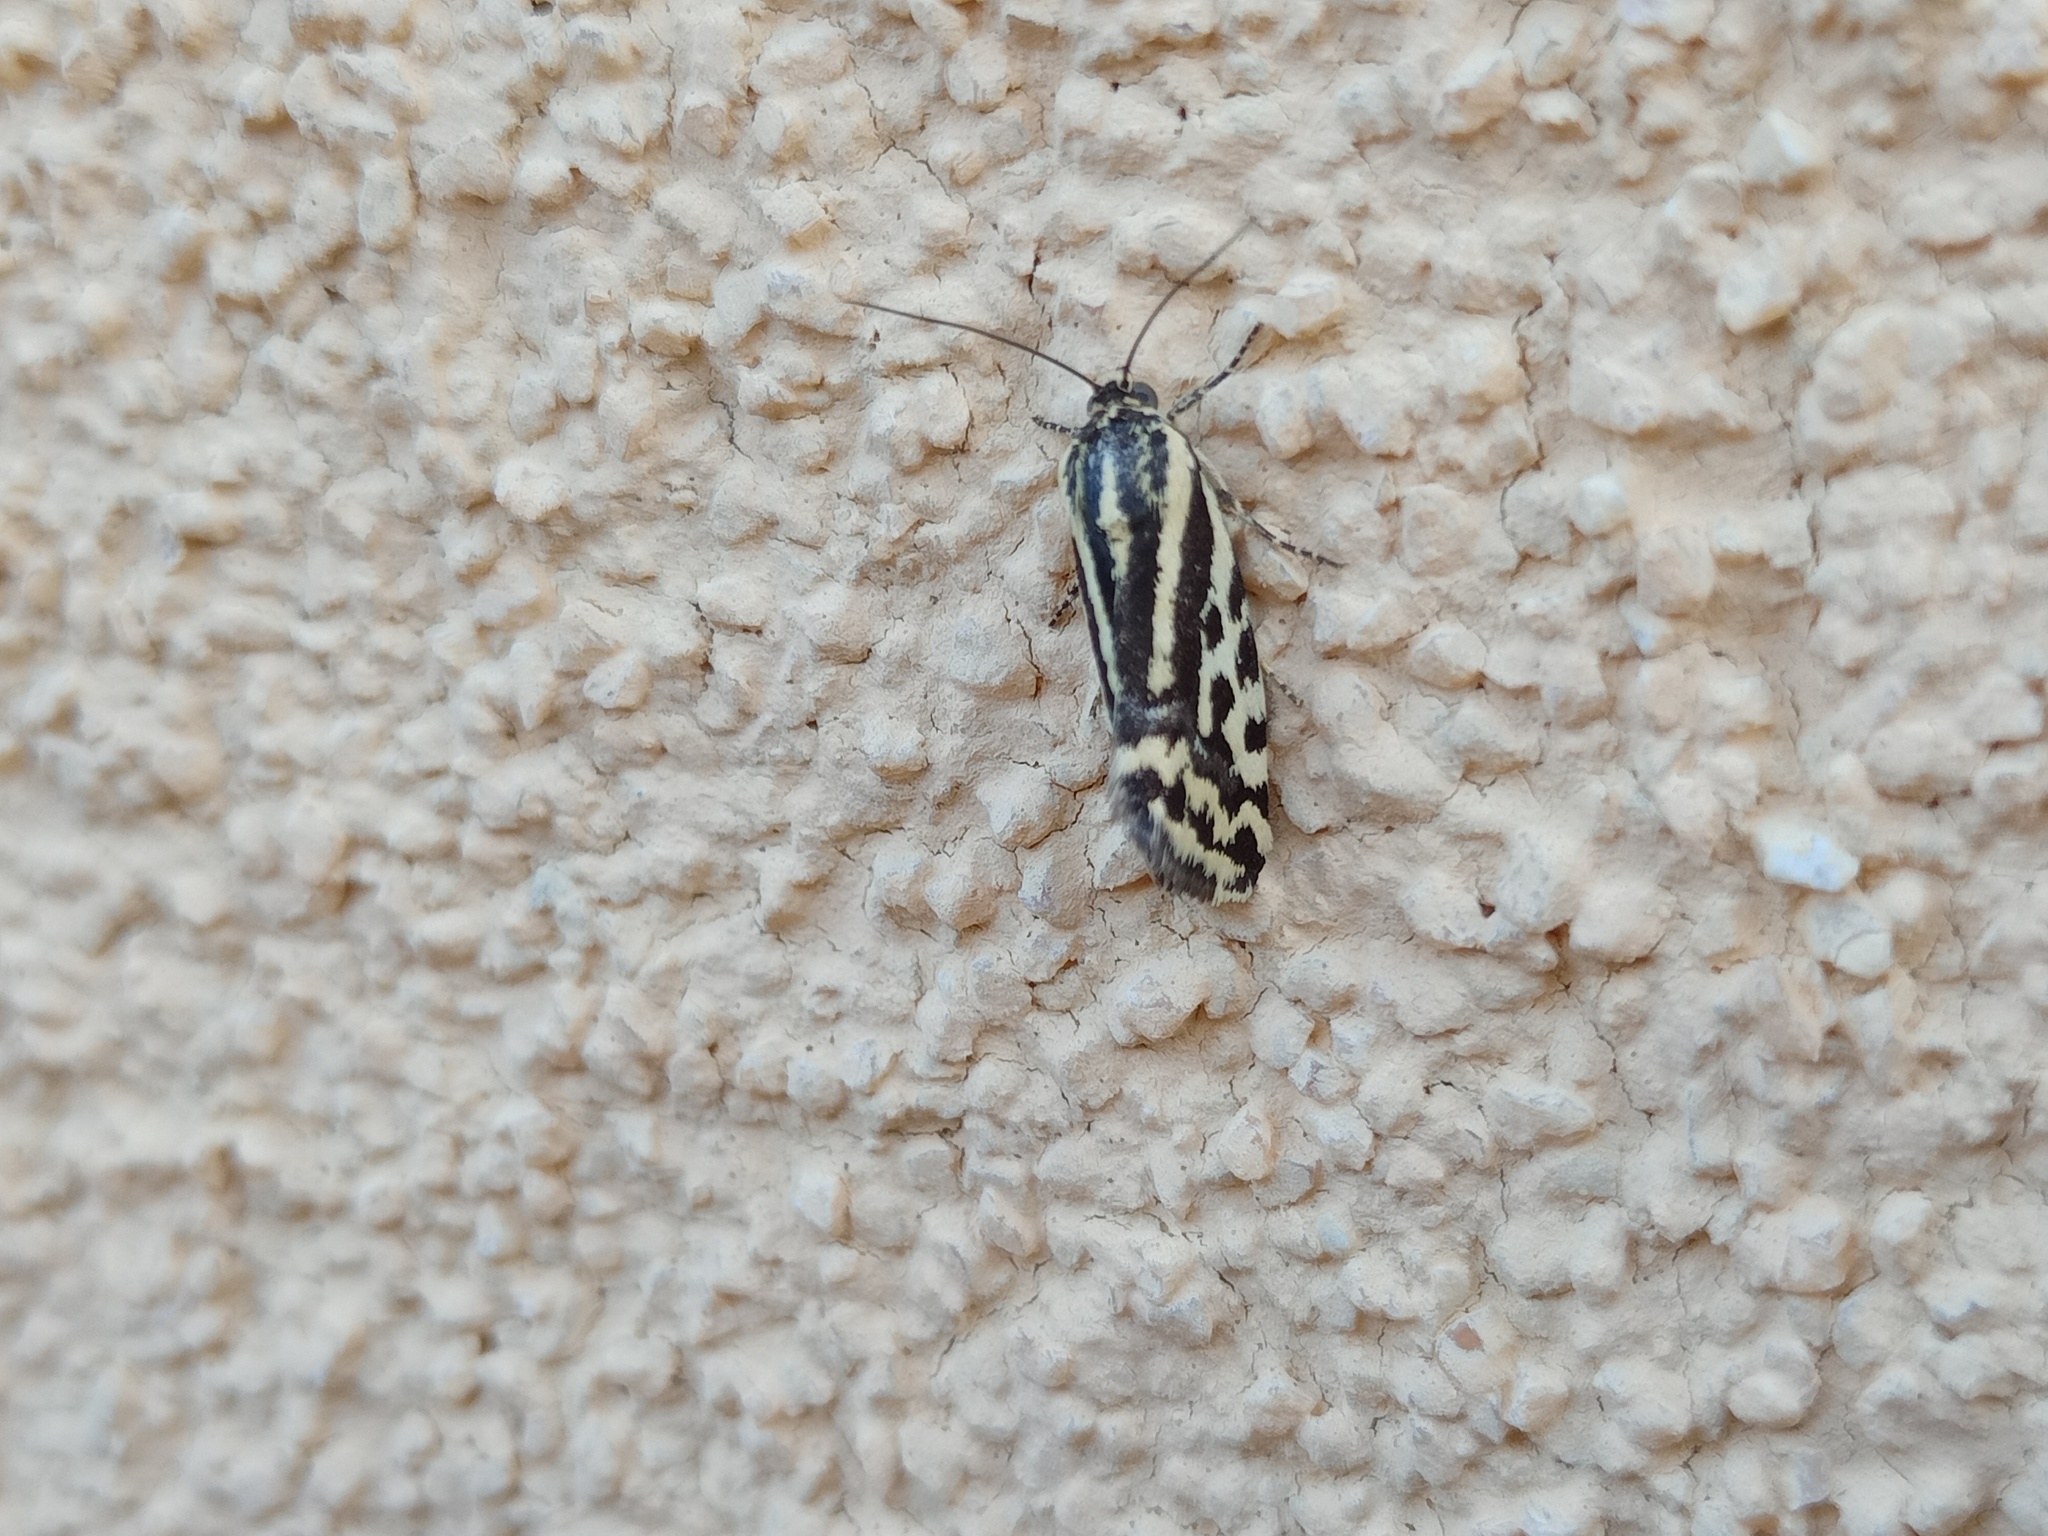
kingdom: Animalia
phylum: Arthropoda
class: Insecta
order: Lepidoptera
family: Noctuidae
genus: Acontia
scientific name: Acontia trabealis
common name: Spotted sulphur
